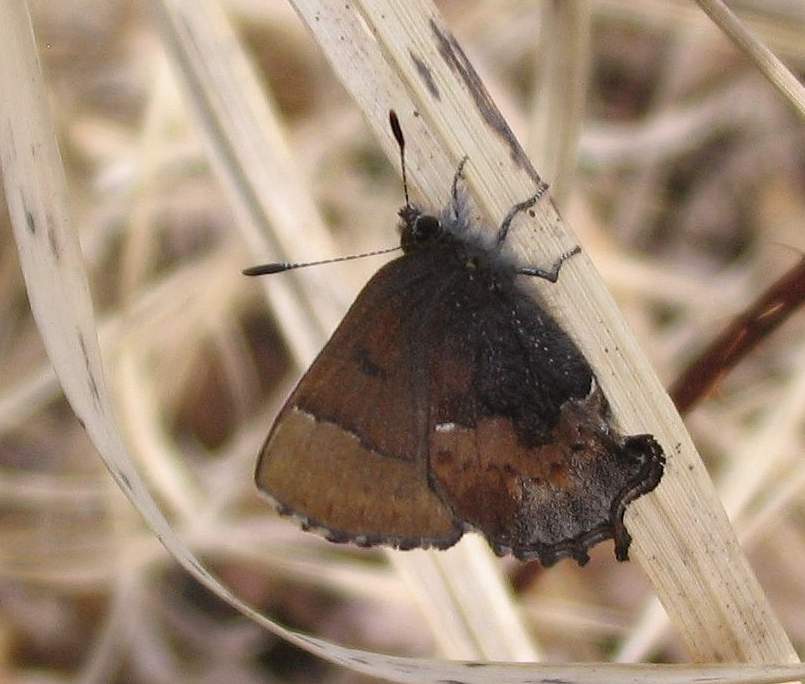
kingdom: Animalia
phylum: Arthropoda
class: Insecta
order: Lepidoptera
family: Lycaenidae
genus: Incisalia
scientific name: Incisalia henrici
